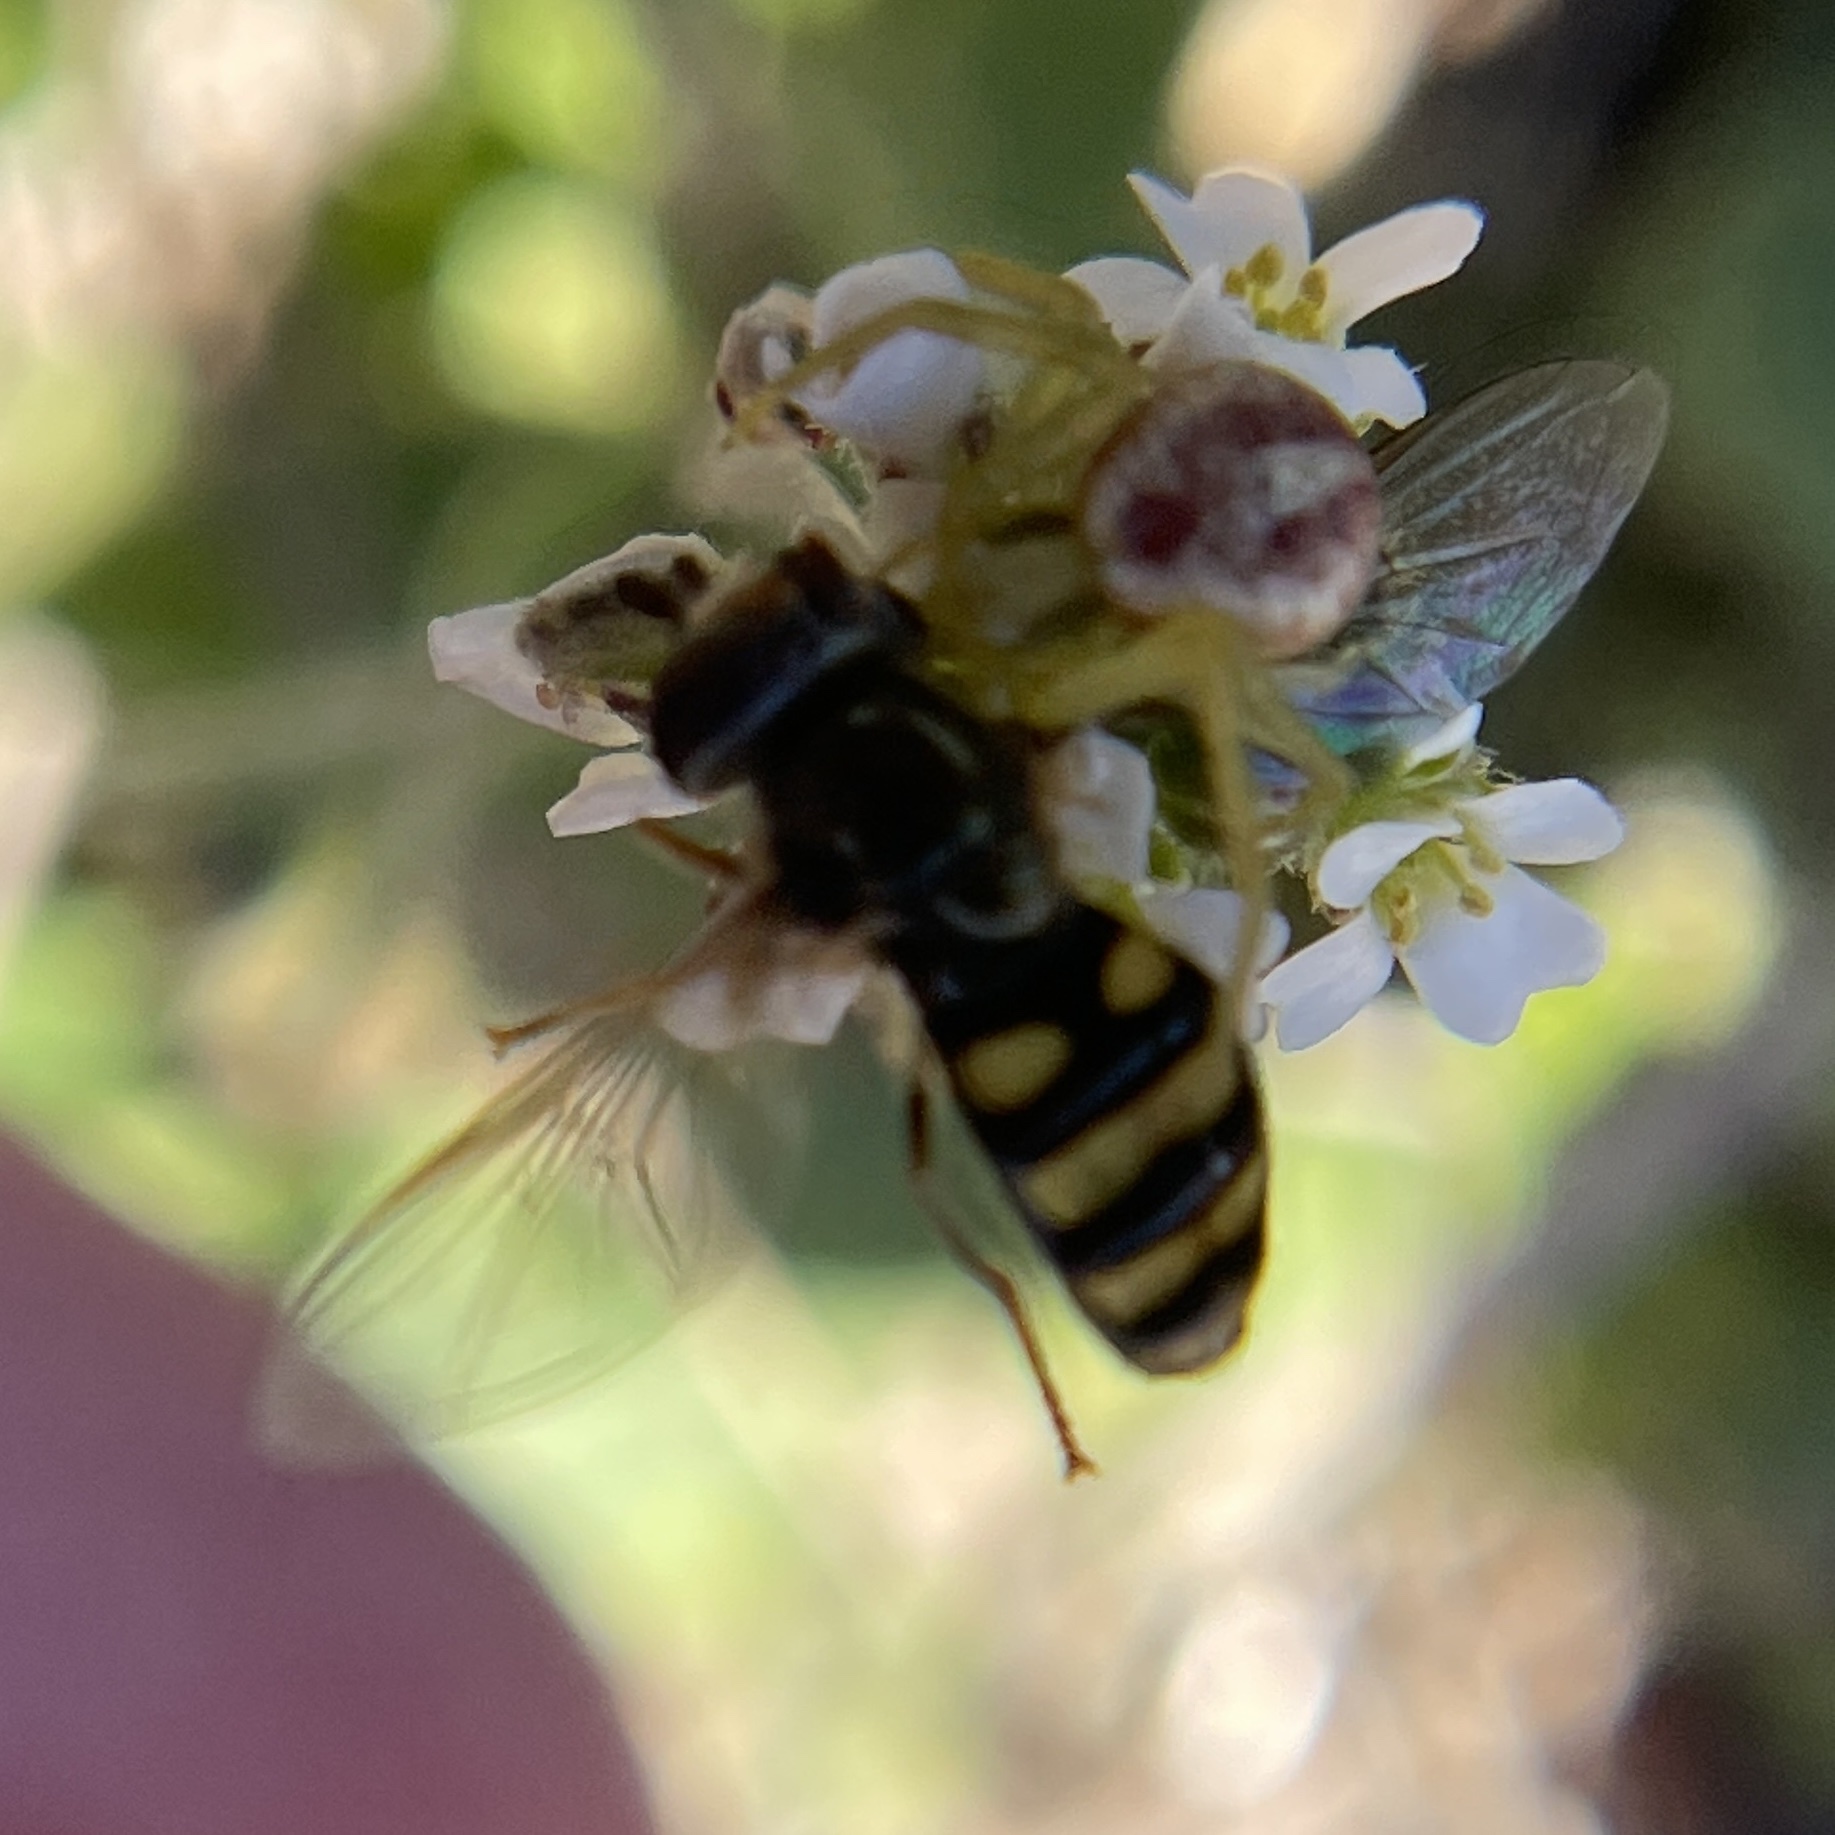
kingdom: Animalia
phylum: Arthropoda
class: Insecta
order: Diptera
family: Syrphidae
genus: Eupeodes
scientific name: Eupeodes
